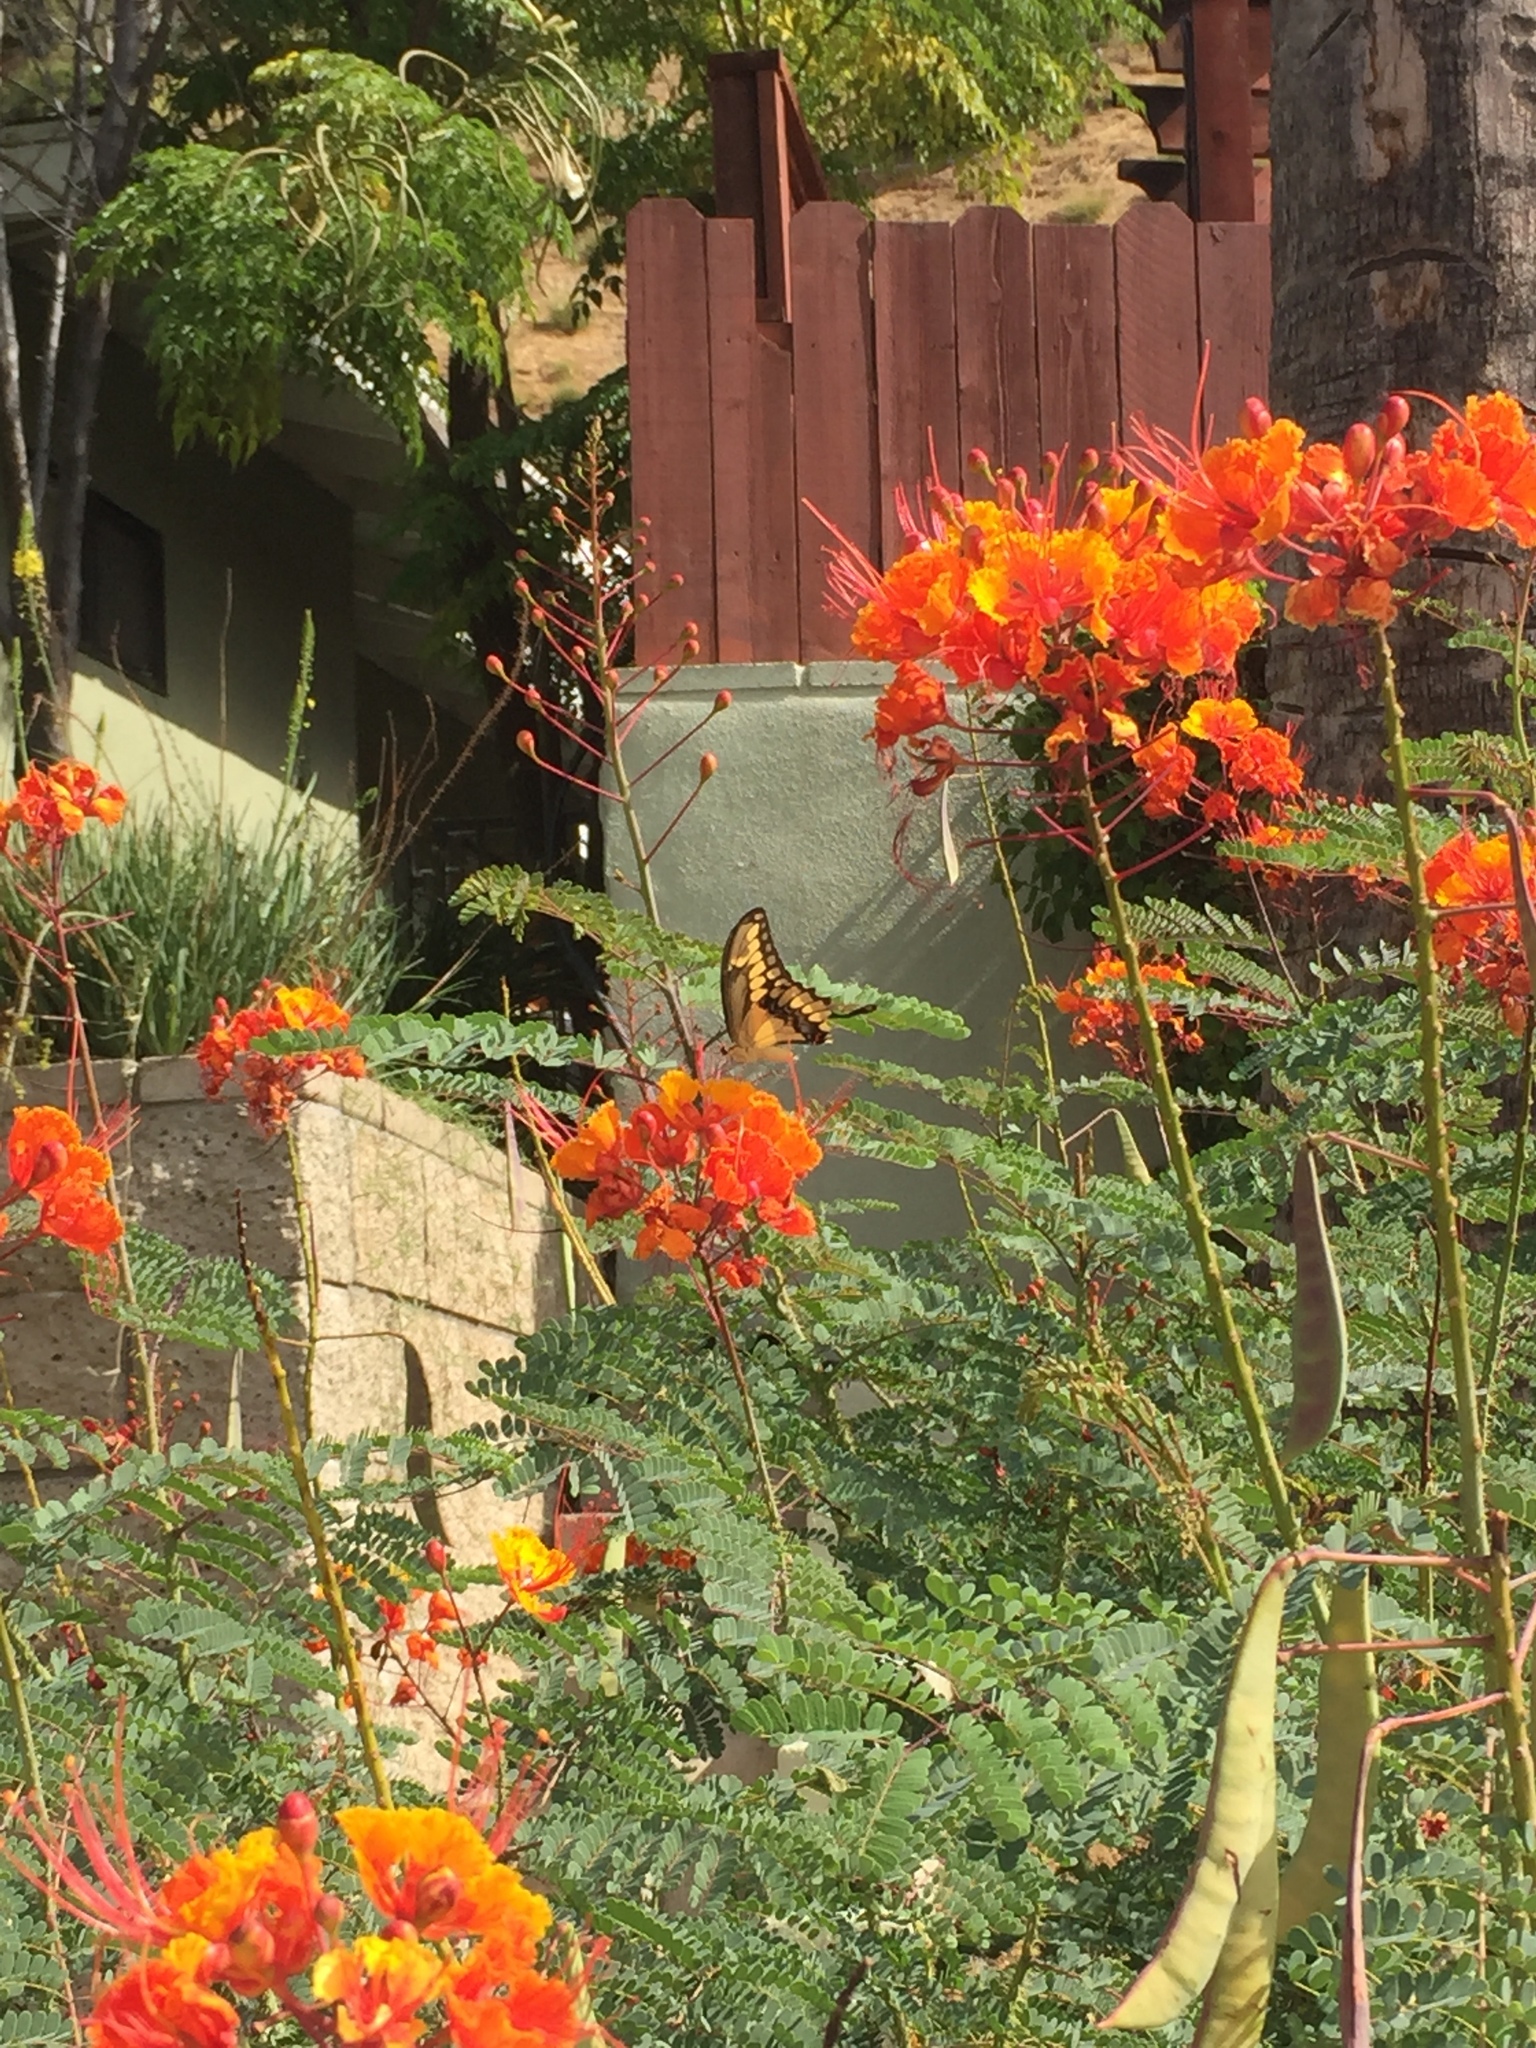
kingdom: Animalia
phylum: Arthropoda
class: Insecta
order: Lepidoptera
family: Papilionidae
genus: Papilio
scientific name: Papilio rumiko
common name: Western giant swallowtail
